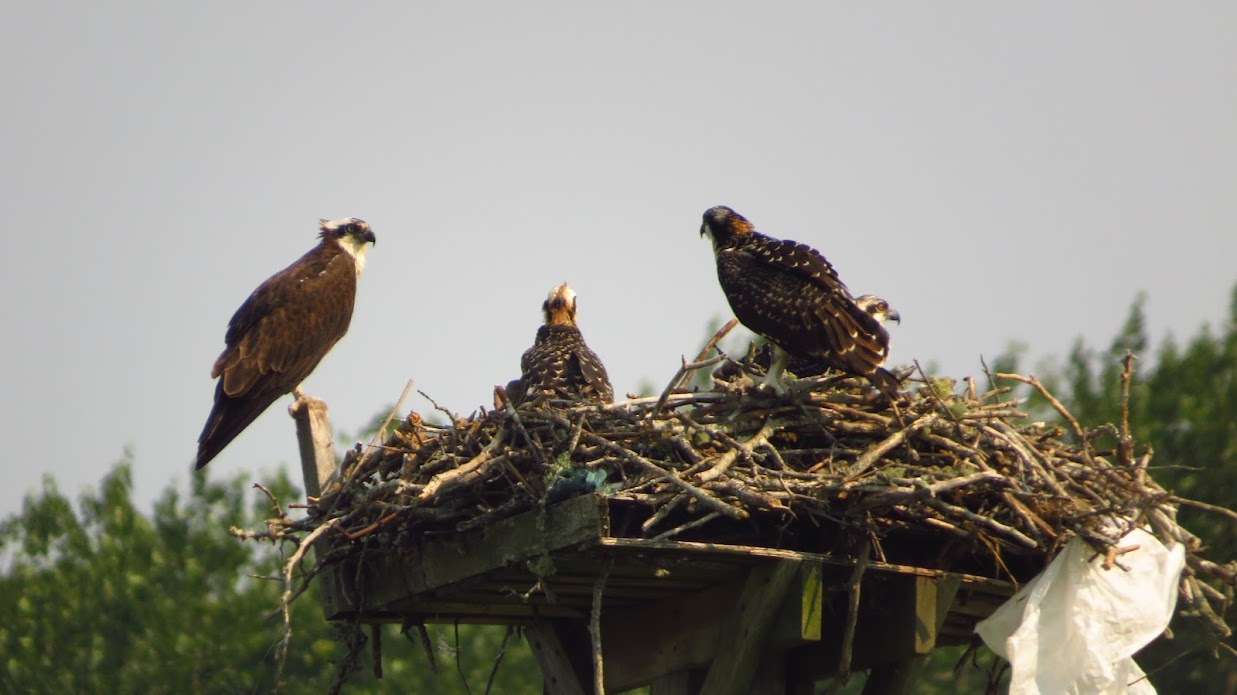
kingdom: Animalia
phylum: Chordata
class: Aves
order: Accipitriformes
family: Pandionidae
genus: Pandion
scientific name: Pandion haliaetus
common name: Osprey
